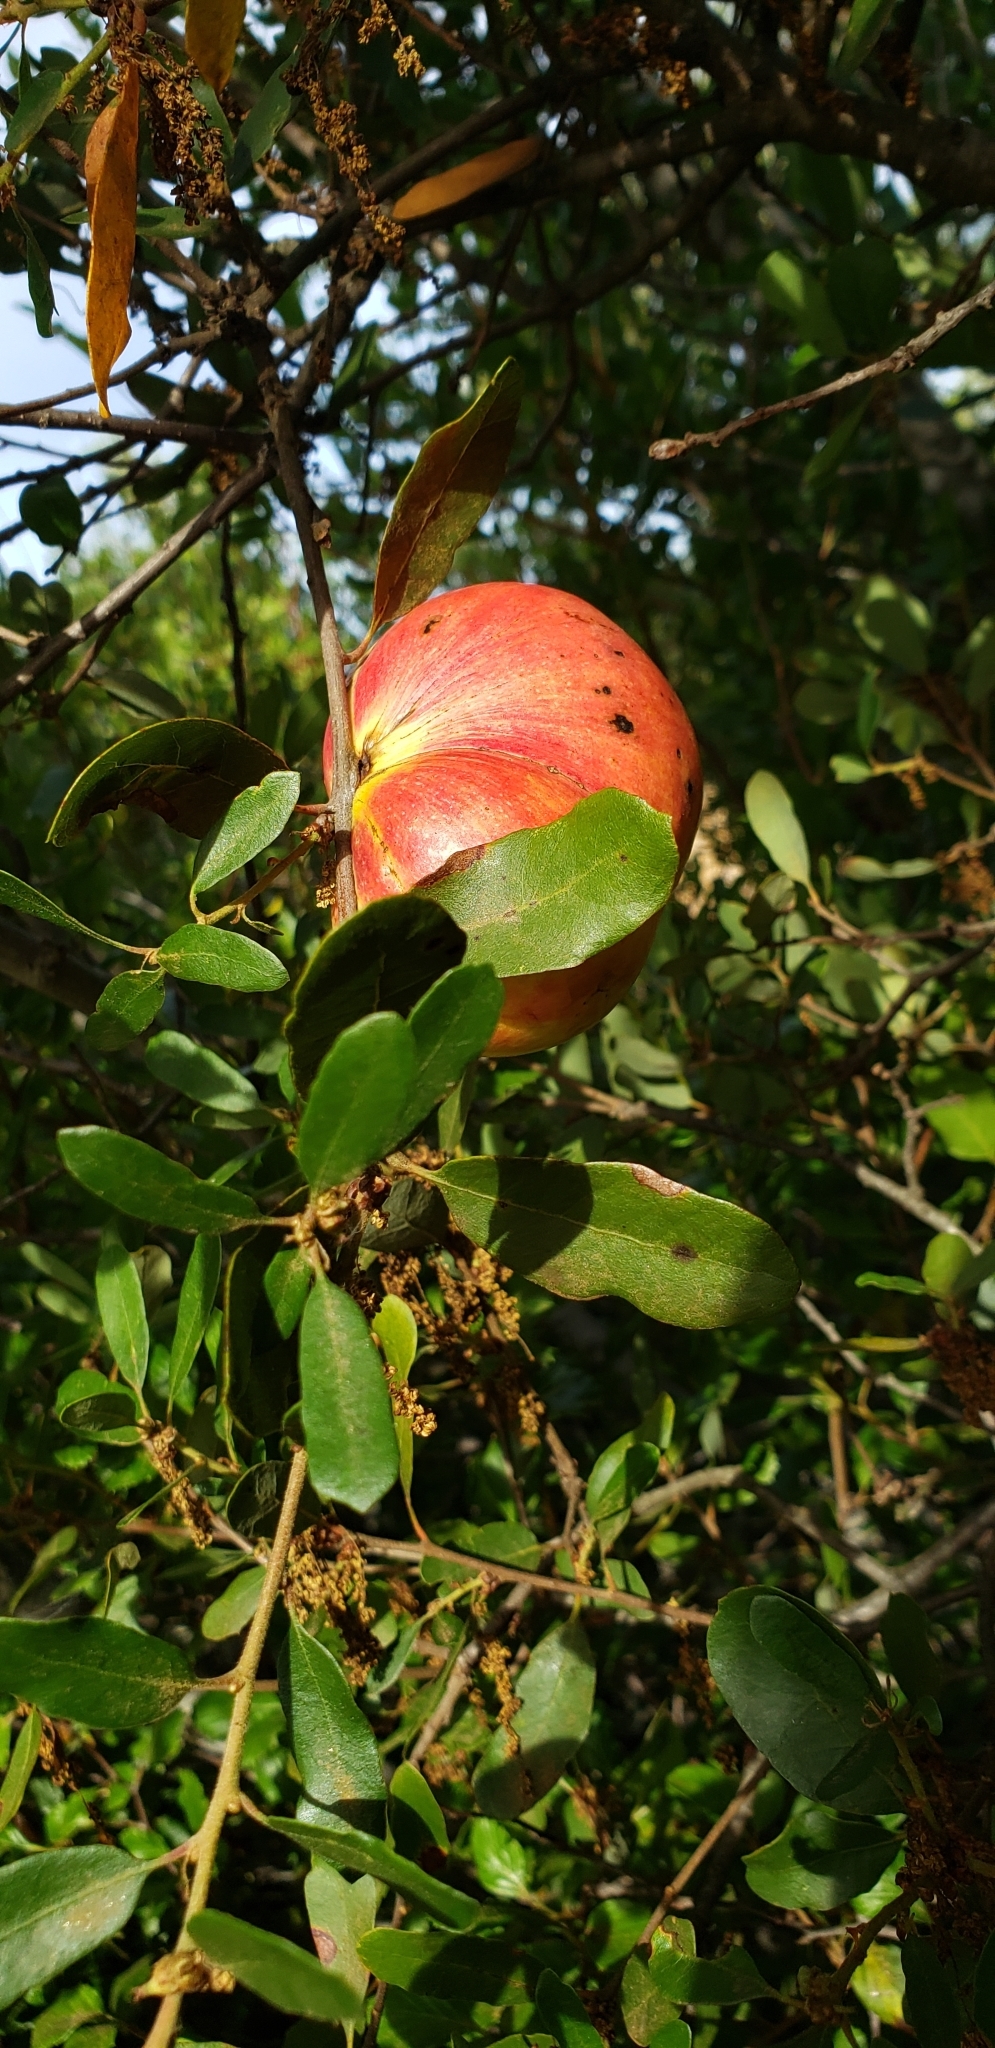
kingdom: Animalia
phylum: Arthropoda
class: Insecta
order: Hymenoptera
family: Cynipidae
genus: Andricus
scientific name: Andricus quercuscalifornicus
